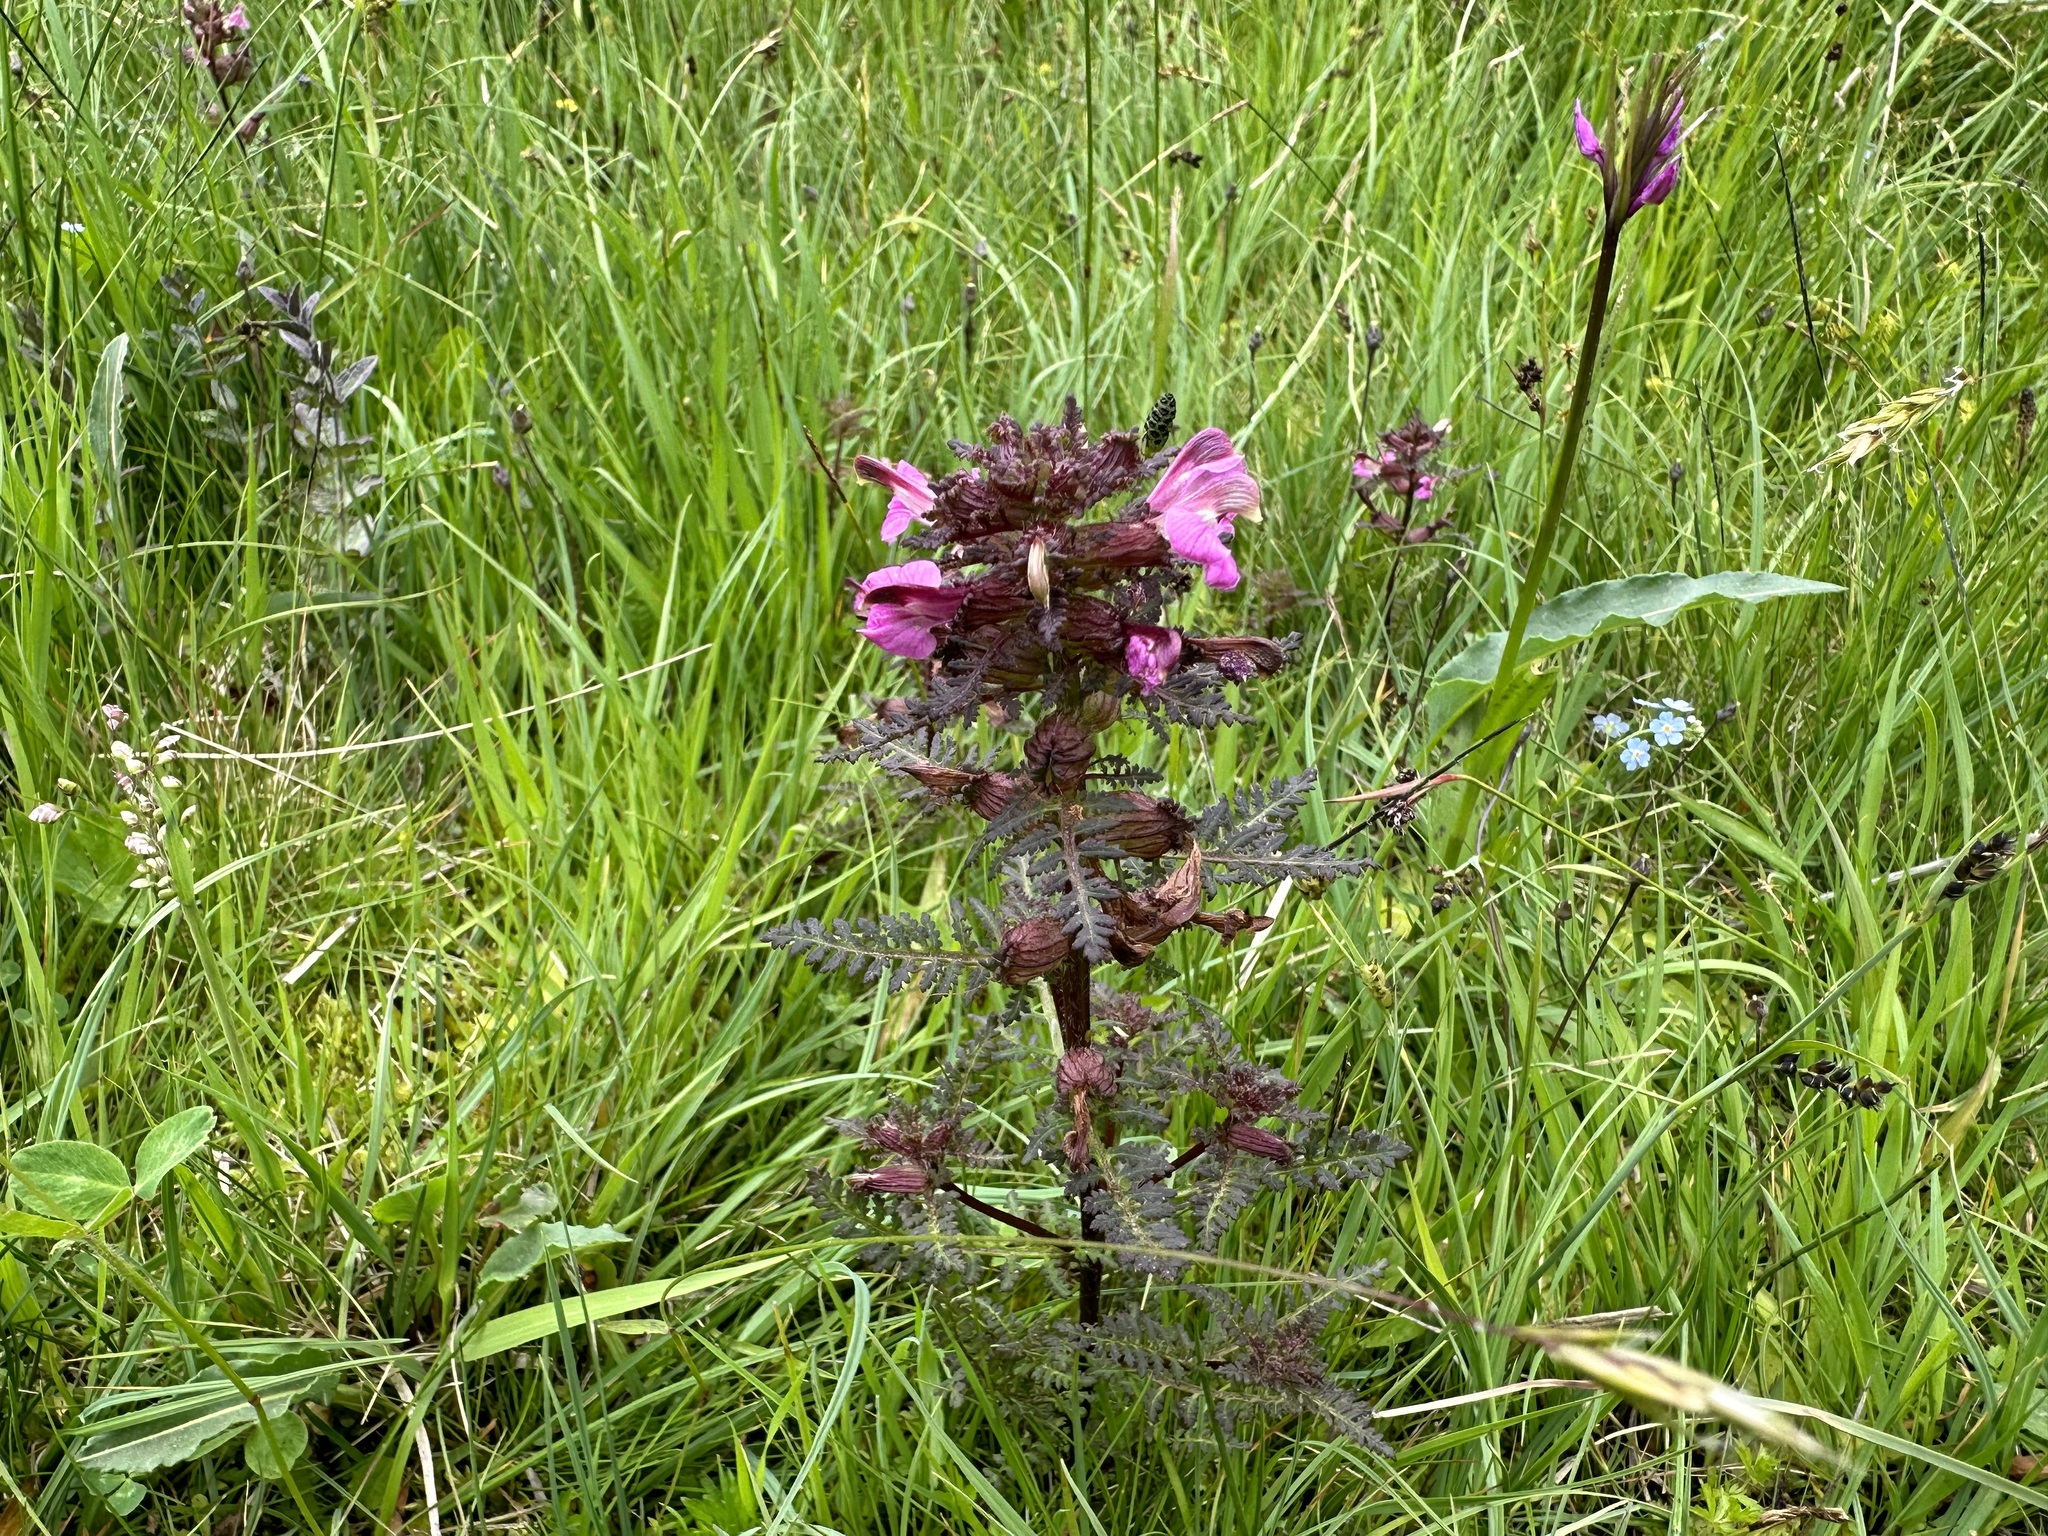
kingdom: Plantae
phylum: Tracheophyta
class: Magnoliopsida
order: Lamiales
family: Orobanchaceae
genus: Pedicularis
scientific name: Pedicularis palustris
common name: Marsh lousewort
